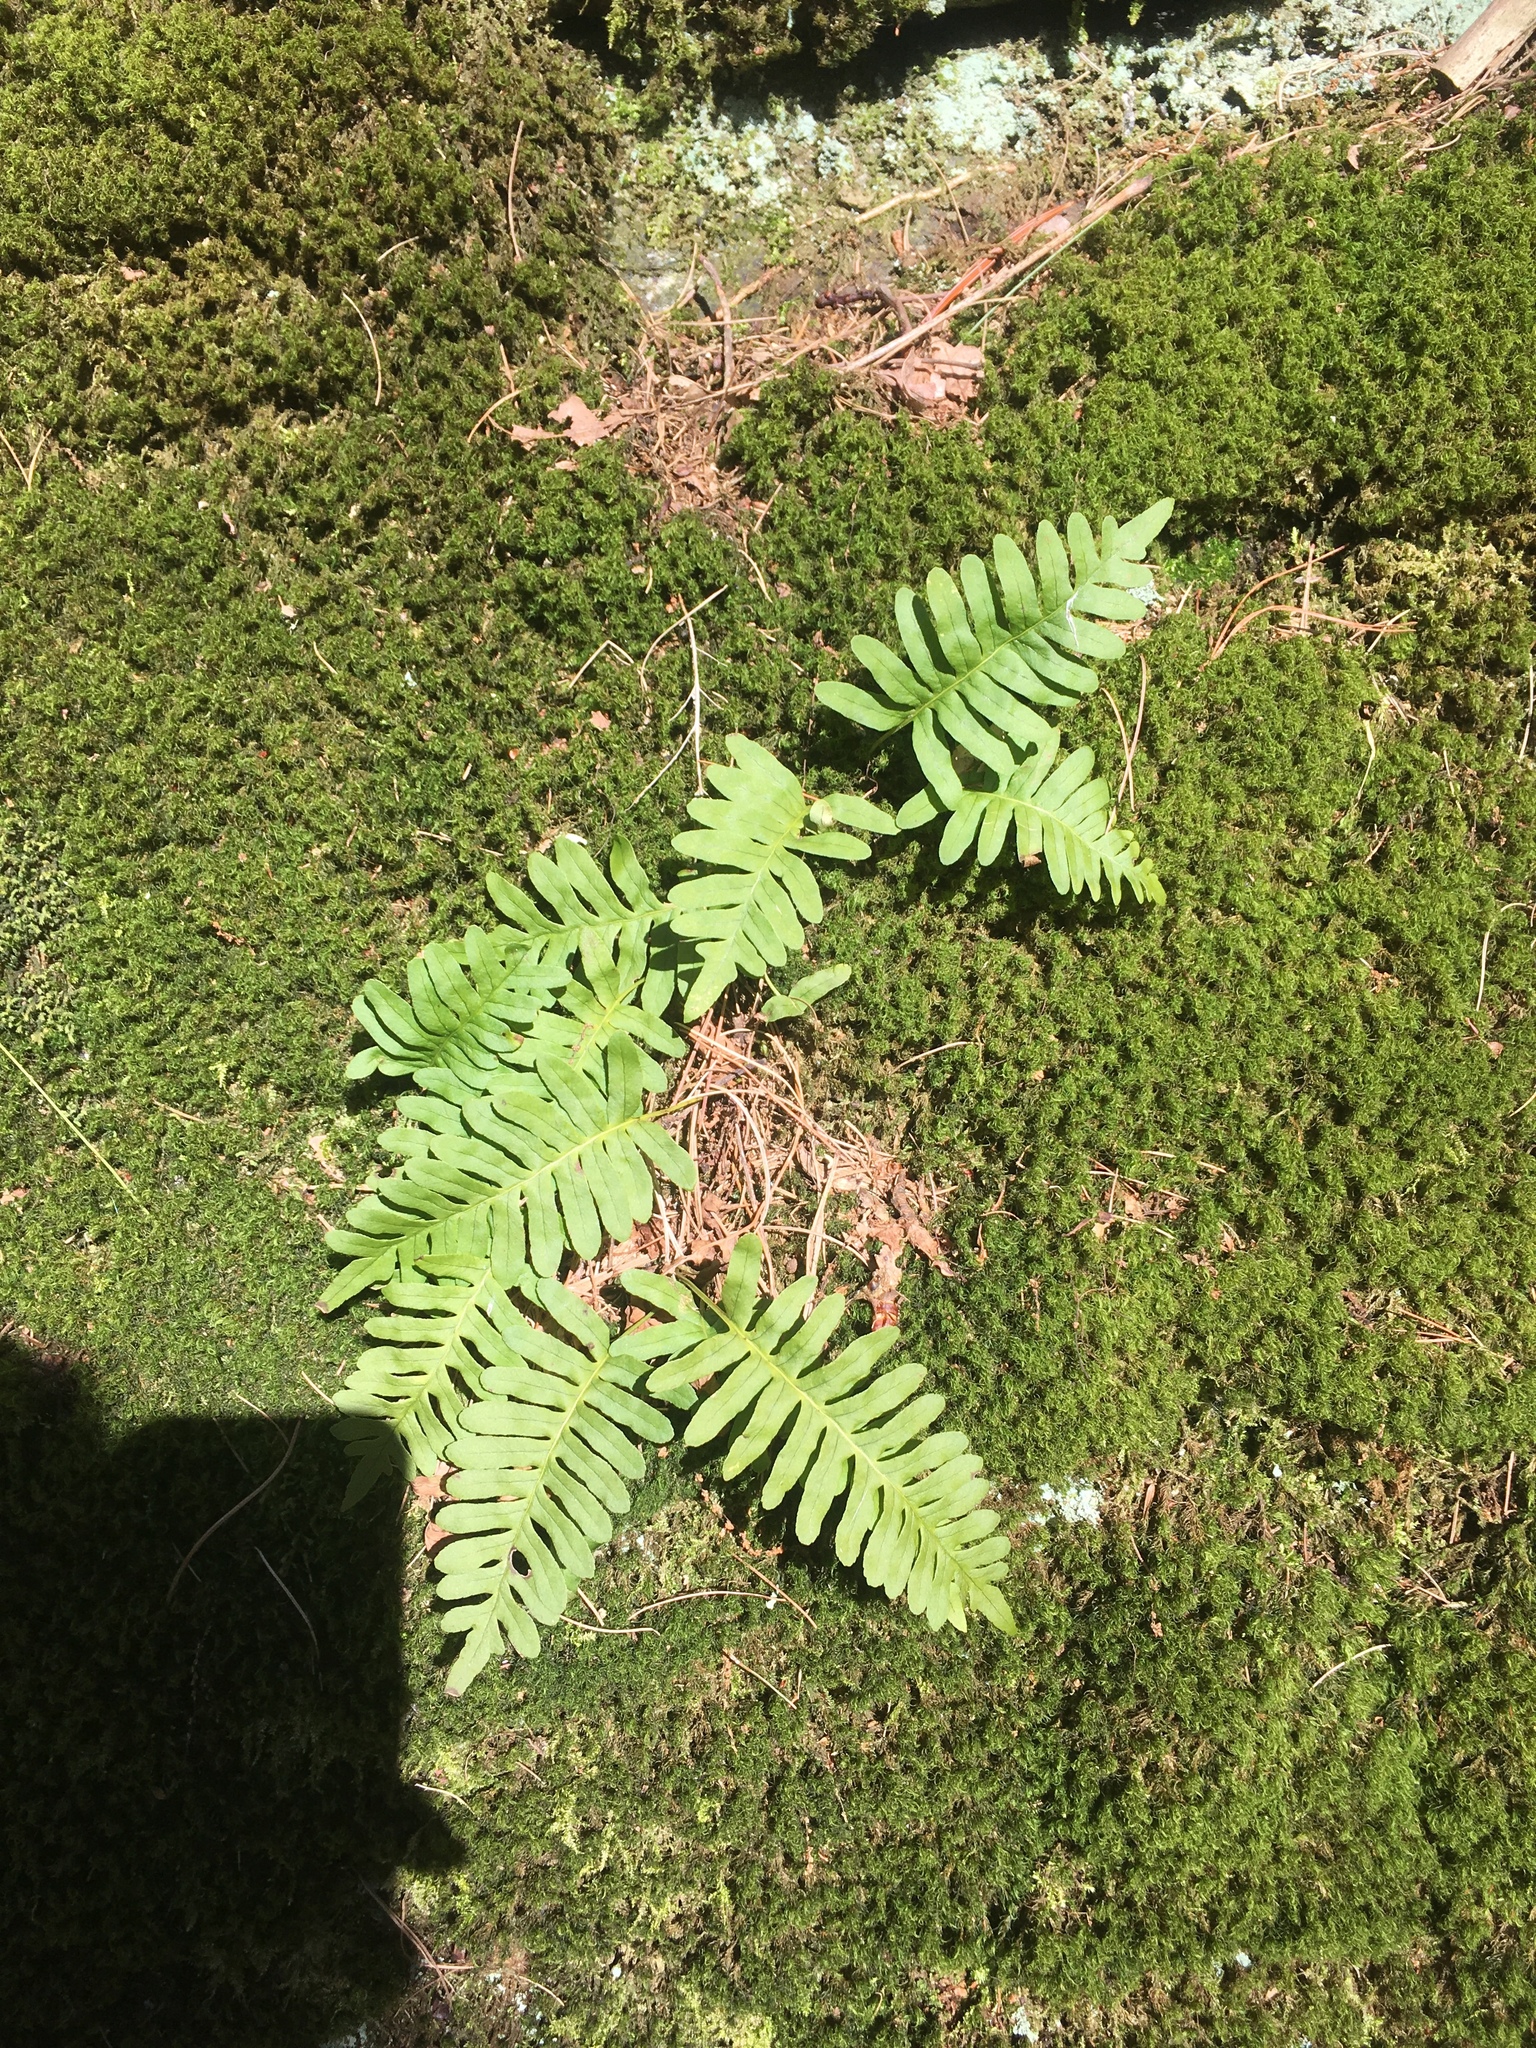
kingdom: Plantae
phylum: Tracheophyta
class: Polypodiopsida
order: Polypodiales
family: Polypodiaceae
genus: Polypodium
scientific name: Polypodium virginianum
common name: American wall fern
